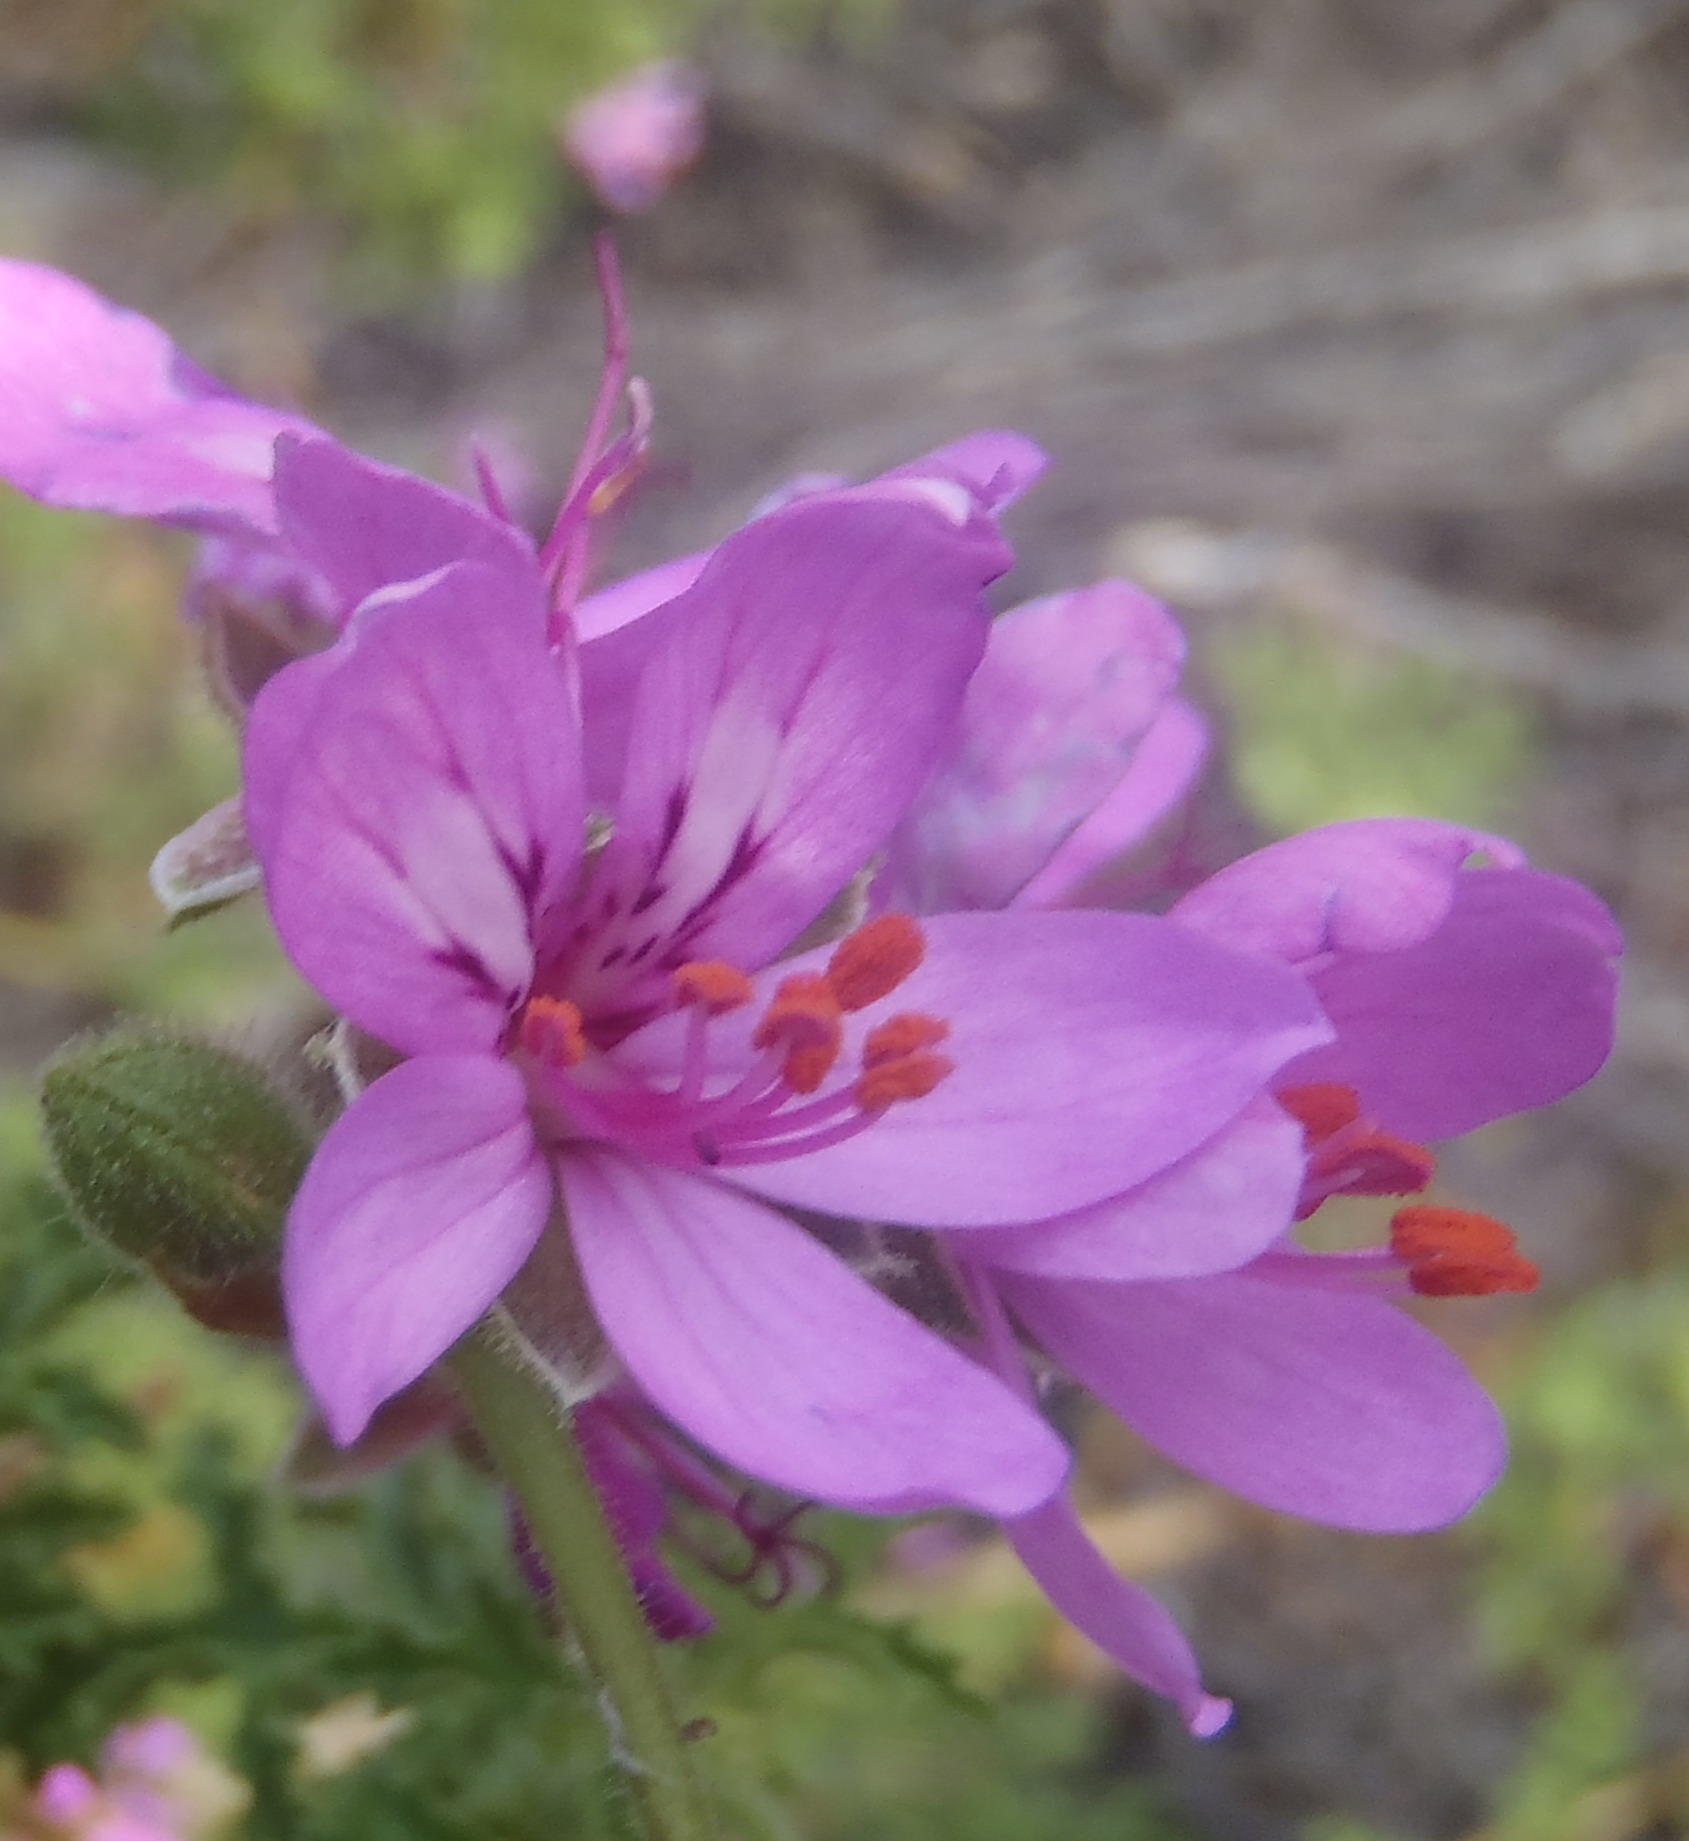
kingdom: Plantae
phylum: Tracheophyta
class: Magnoliopsida
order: Geraniales
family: Geraniaceae
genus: Pelargonium
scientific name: Pelargonium glutinosum
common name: Pheasant-foot geranium
